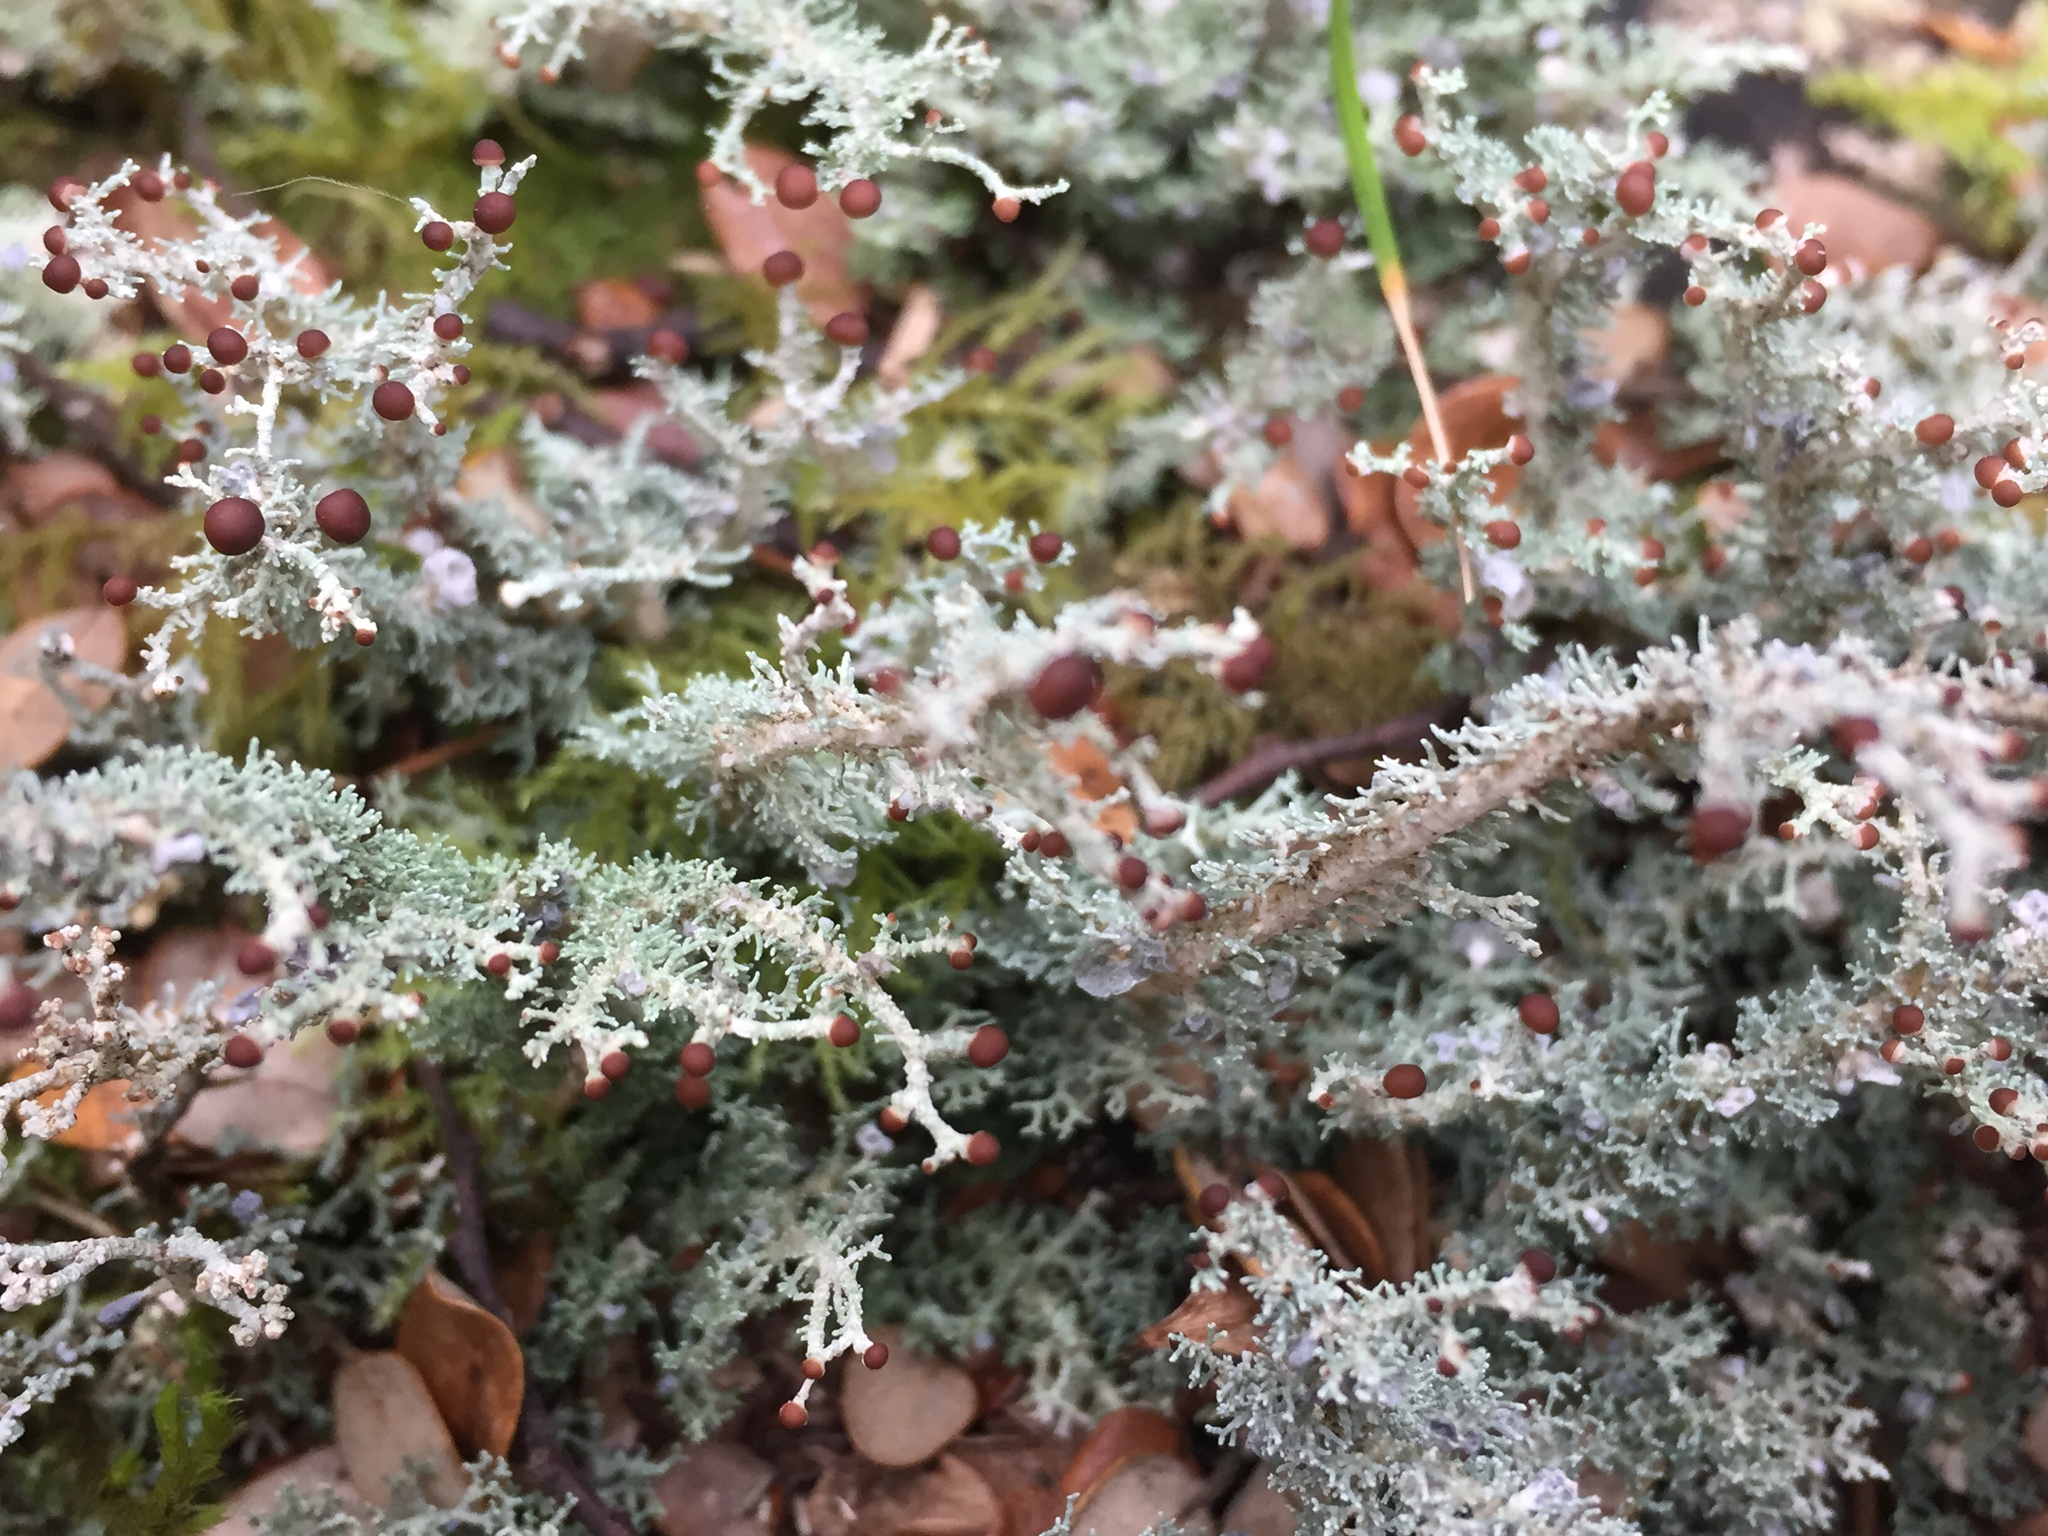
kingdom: Fungi
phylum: Ascomycota
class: Lecanoromycetes
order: Lecanorales
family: Stereocaulaceae
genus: Stereocaulon
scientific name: Stereocaulon ramulosum
